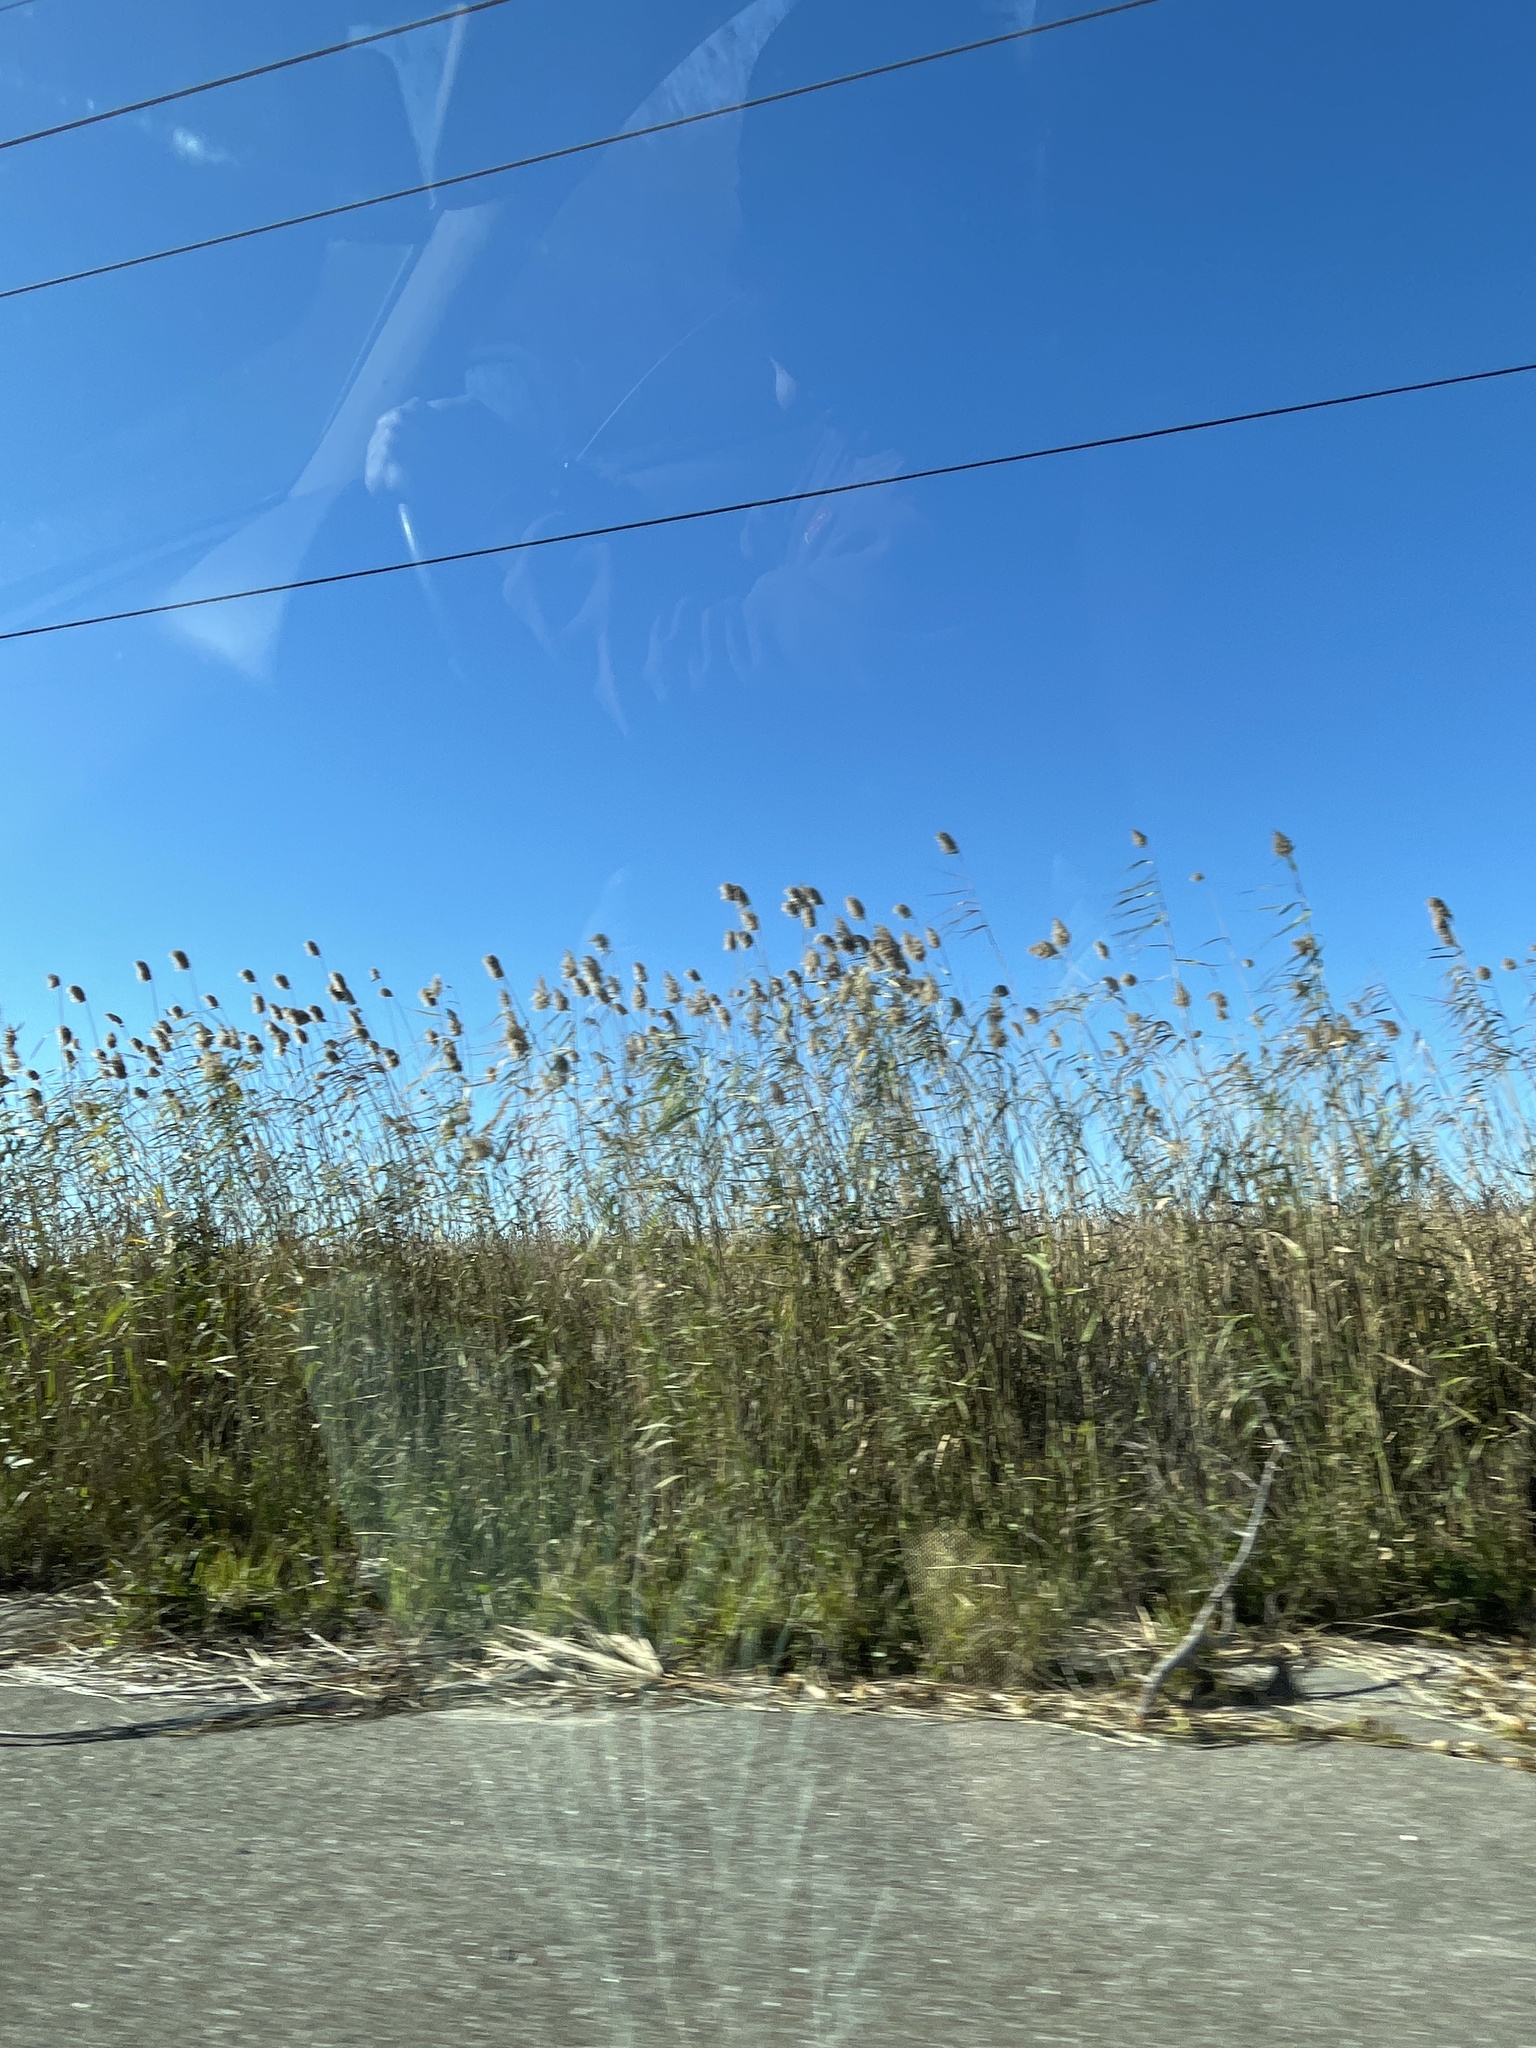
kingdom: Plantae
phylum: Tracheophyta
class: Liliopsida
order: Poales
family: Poaceae
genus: Phragmites
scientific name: Phragmites australis
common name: Common reed
